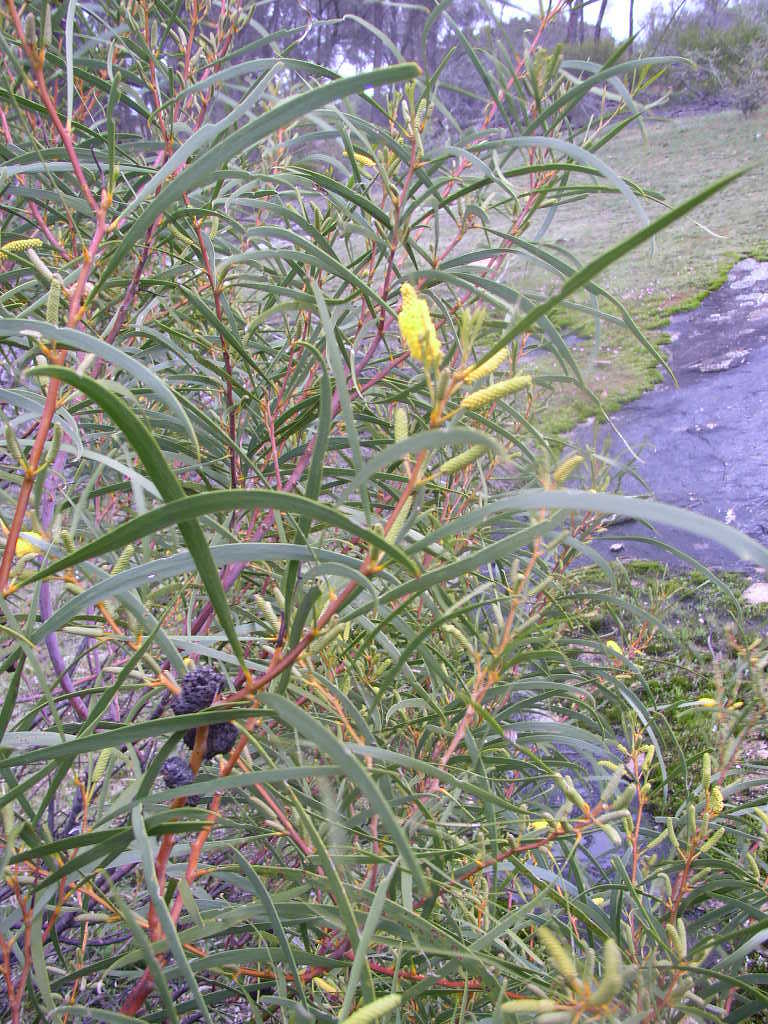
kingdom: Plantae
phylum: Tracheophyta
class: Magnoliopsida
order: Fabales
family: Fabaceae
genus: Acacia
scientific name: Acacia acuminata
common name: Jam wattle
